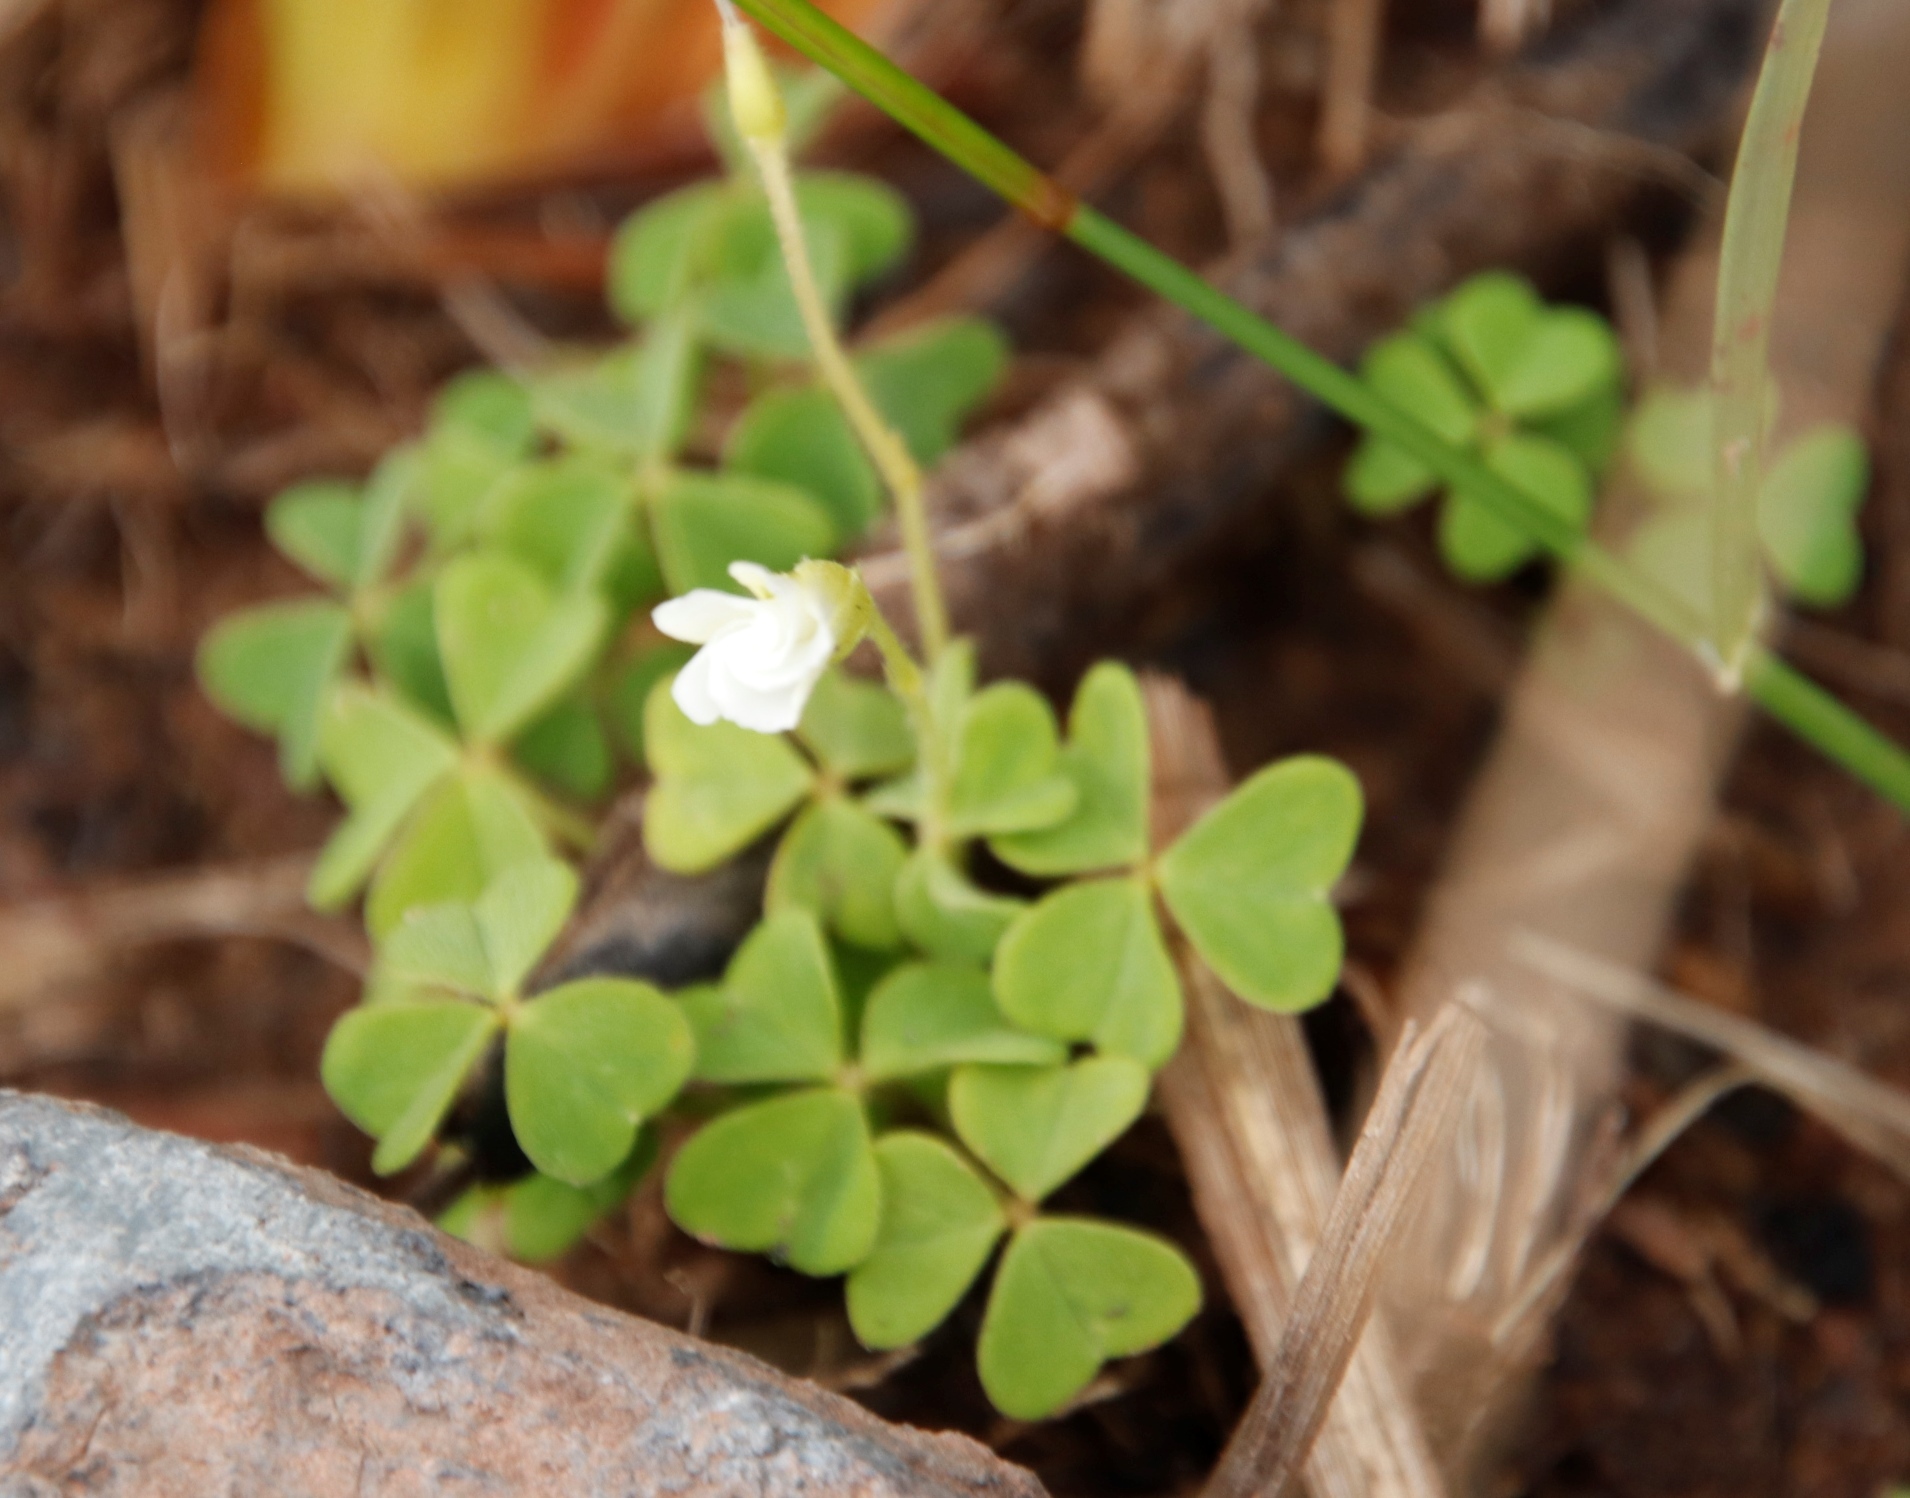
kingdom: Plantae
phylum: Tracheophyta
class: Magnoliopsida
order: Oxalidales
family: Oxalidaceae
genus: Oxalis
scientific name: Oxalis lanata
